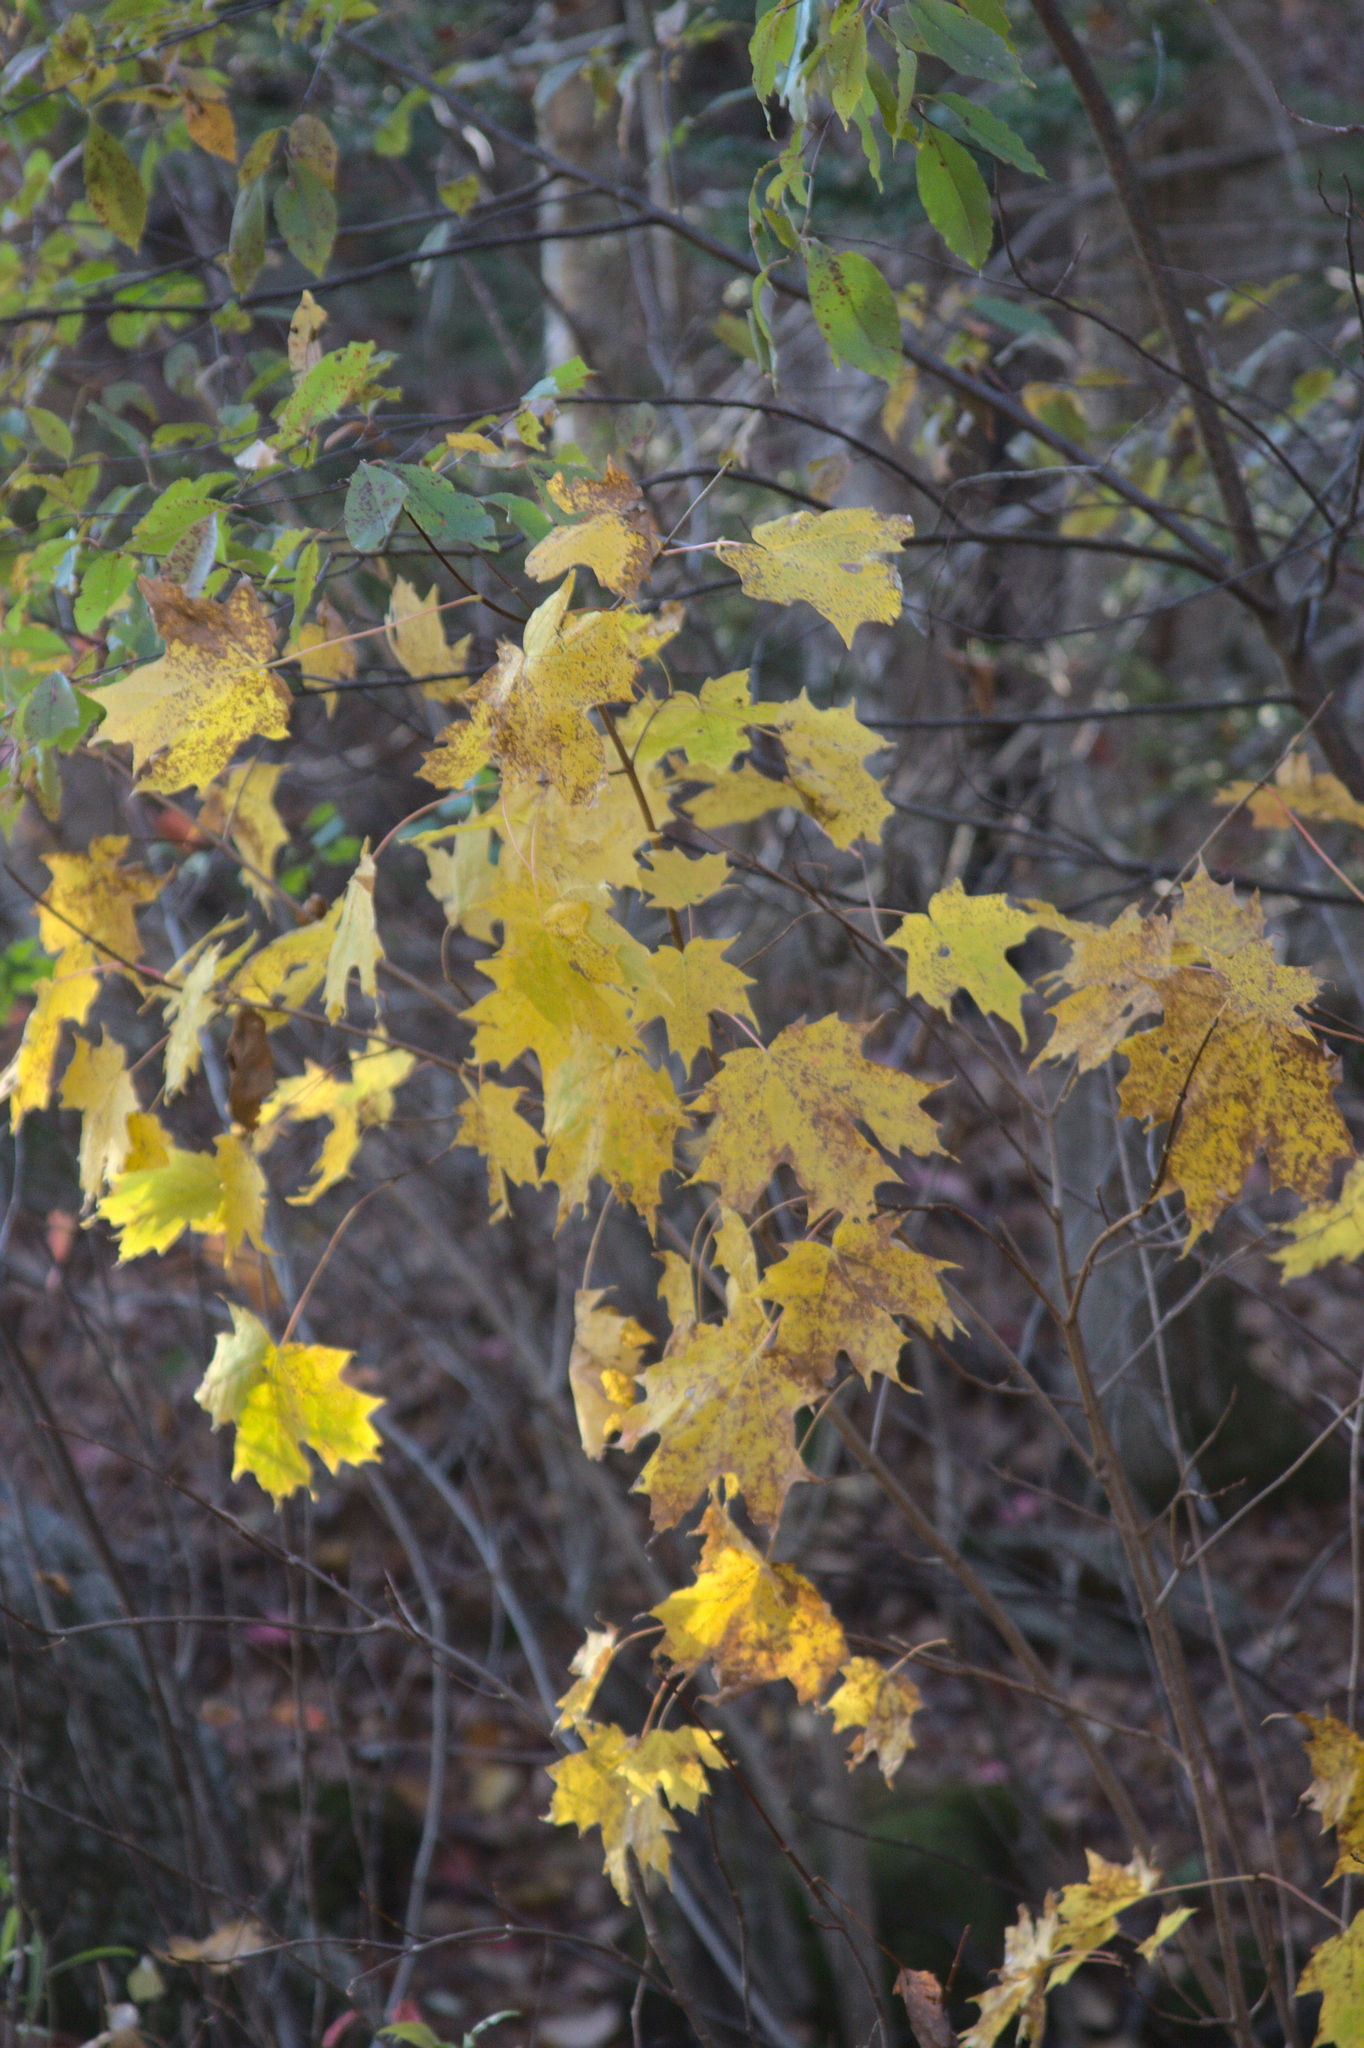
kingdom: Plantae
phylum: Tracheophyta
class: Magnoliopsida
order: Sapindales
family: Sapindaceae
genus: Acer
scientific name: Acer saccharum
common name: Sugar maple
